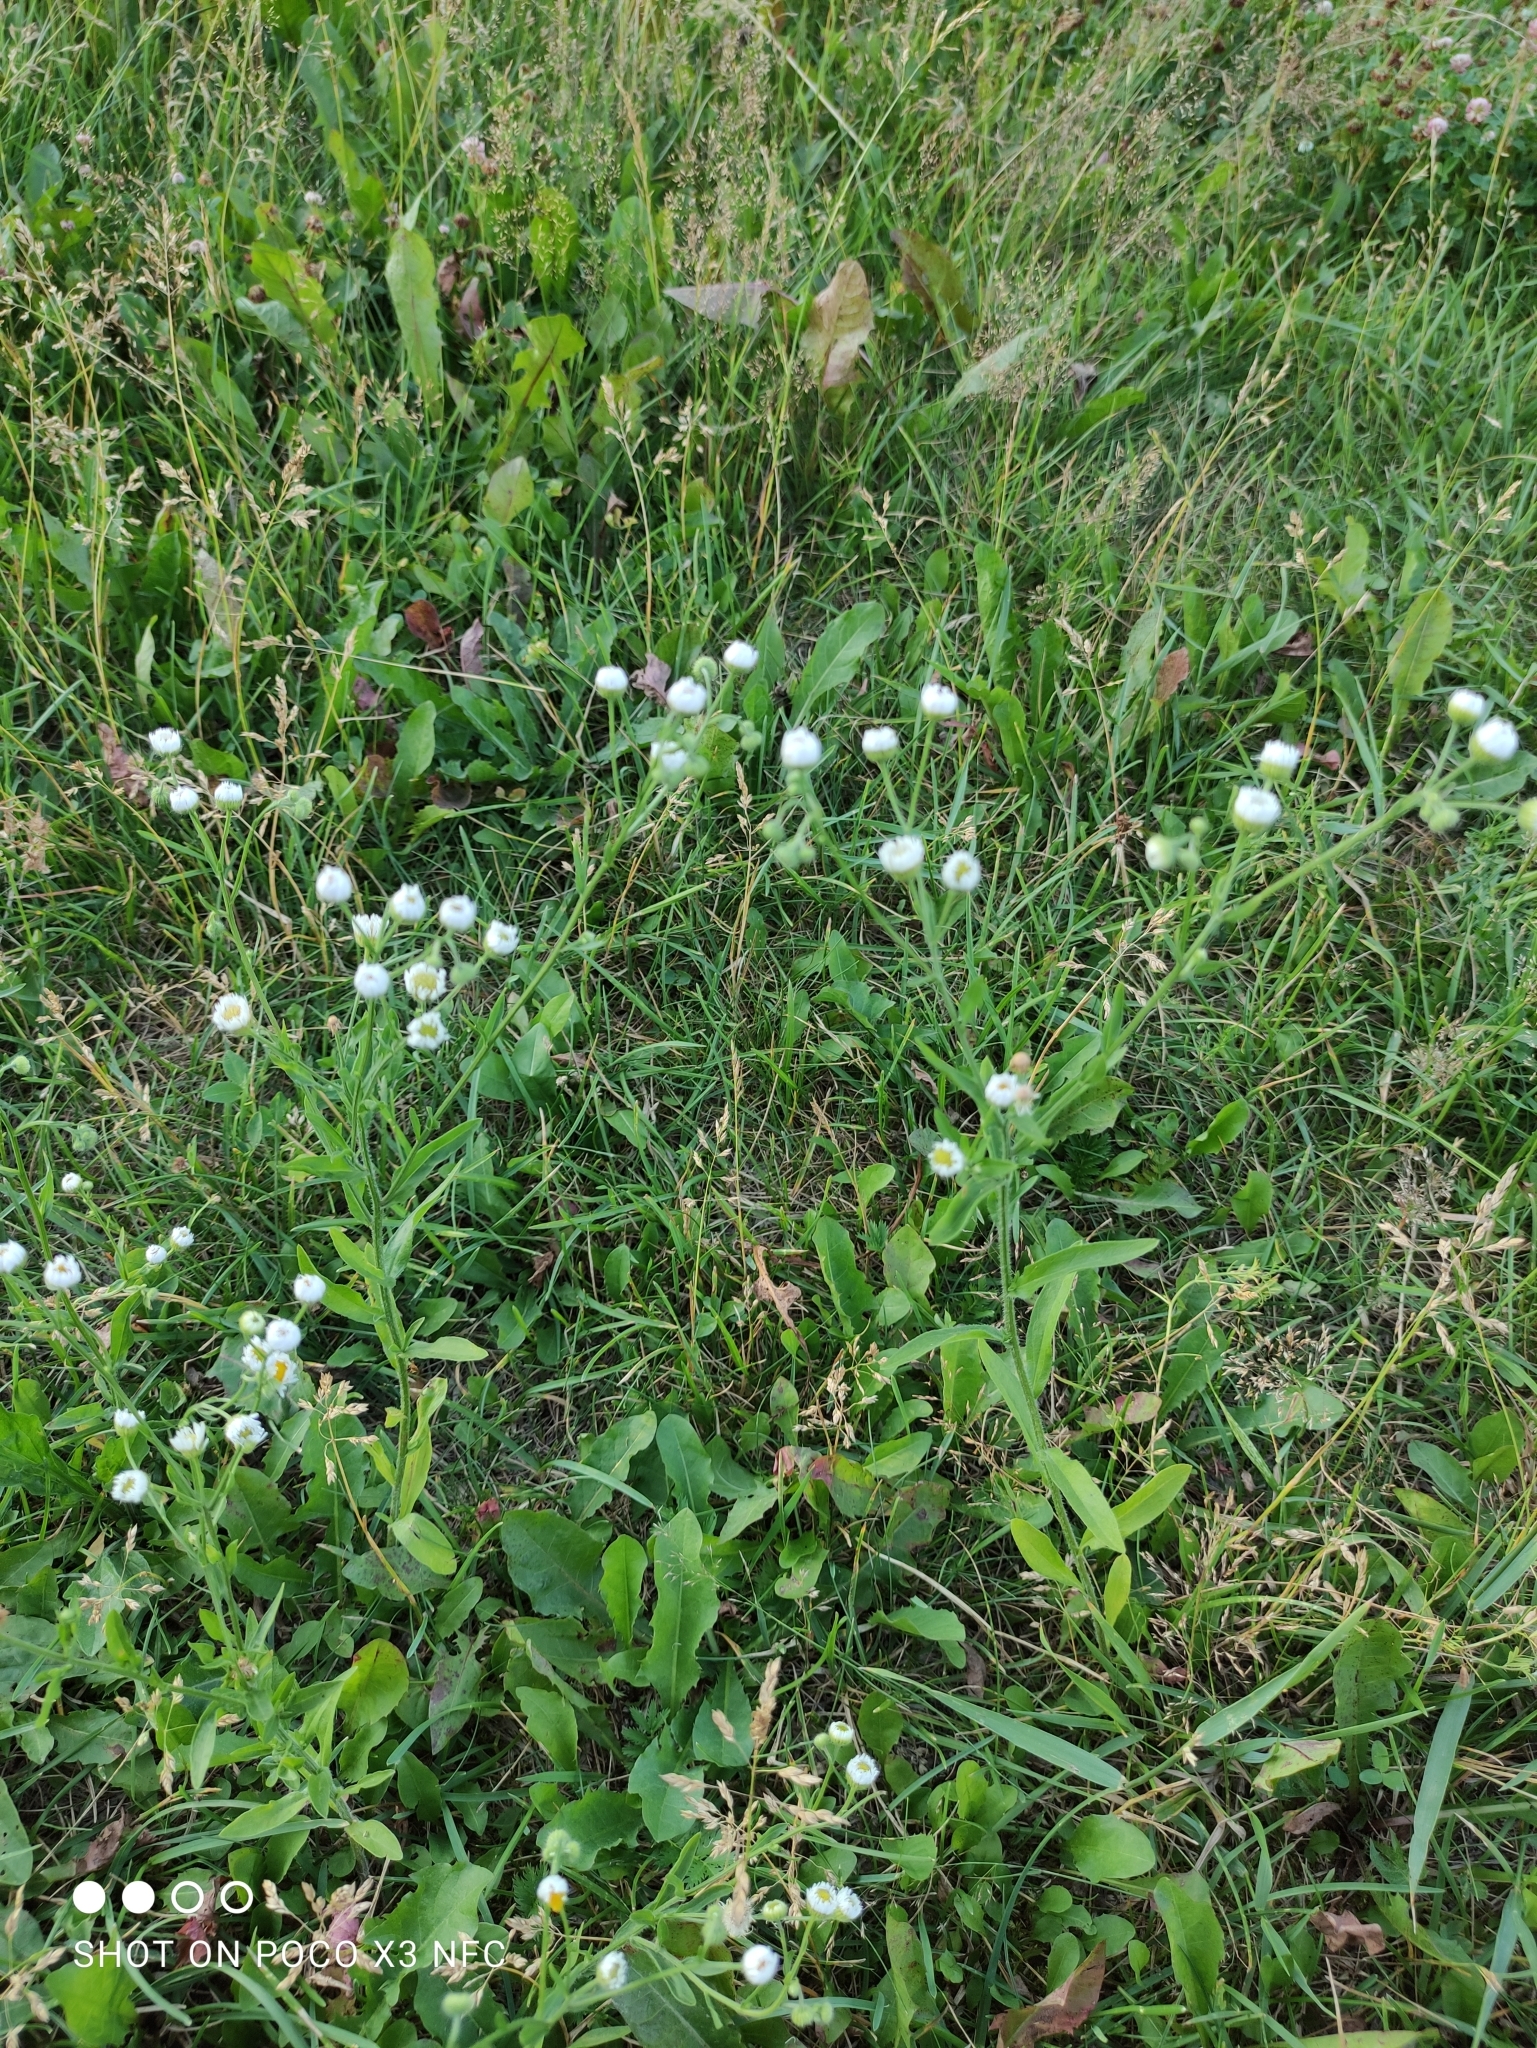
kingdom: Plantae
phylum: Tracheophyta
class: Magnoliopsida
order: Asterales
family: Asteraceae
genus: Erigeron
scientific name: Erigeron annuus
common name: Tall fleabane
